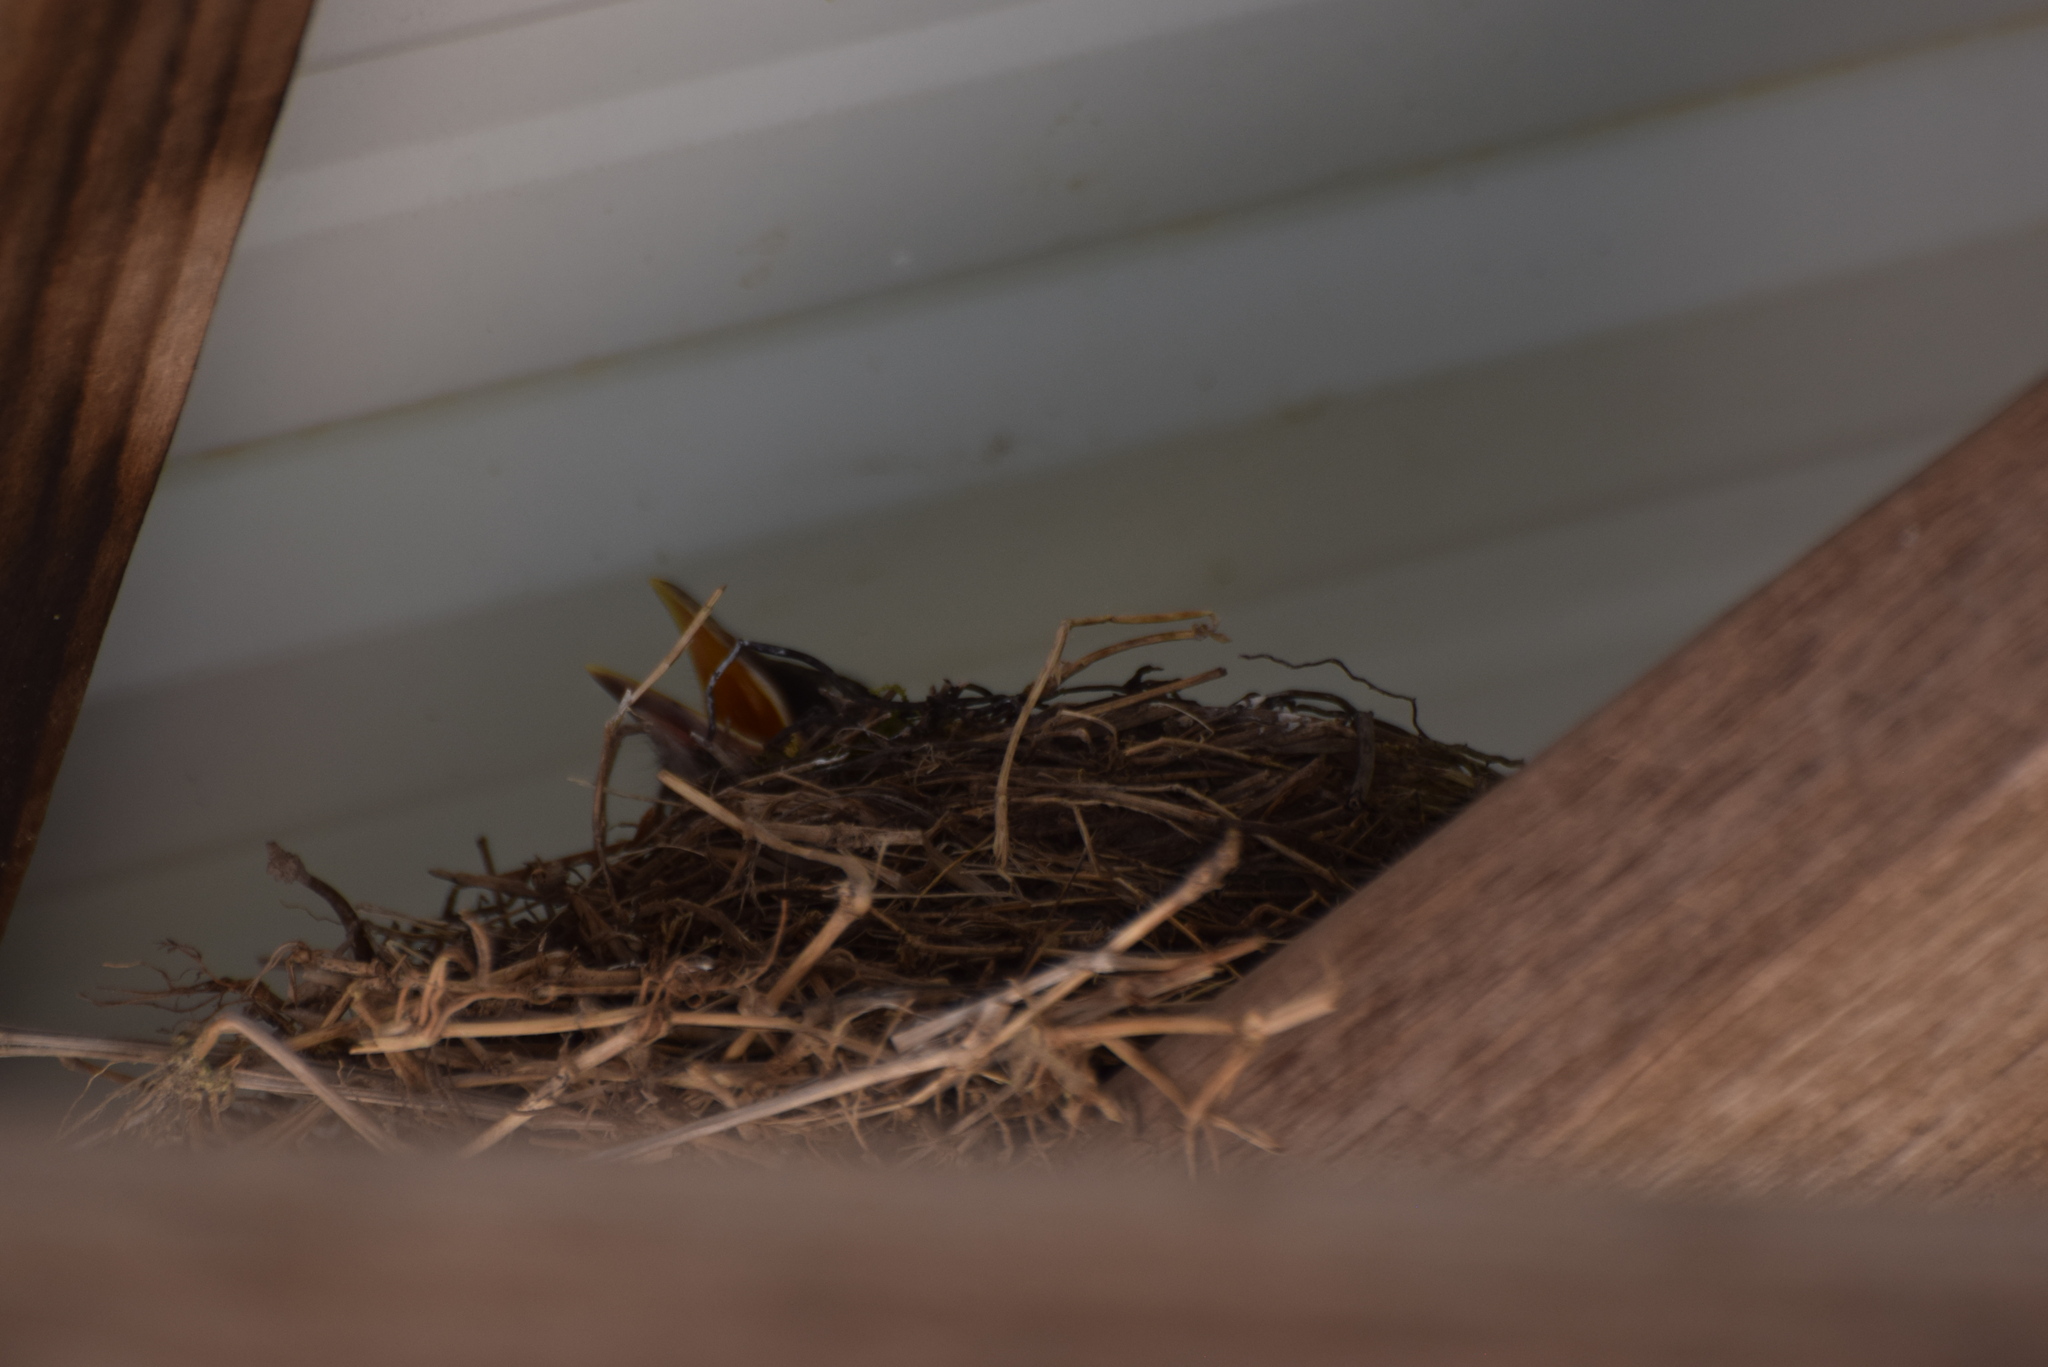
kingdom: Animalia
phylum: Chordata
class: Aves
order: Passeriformes
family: Turdidae
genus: Turdus
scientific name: Turdus migratorius
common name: American robin
